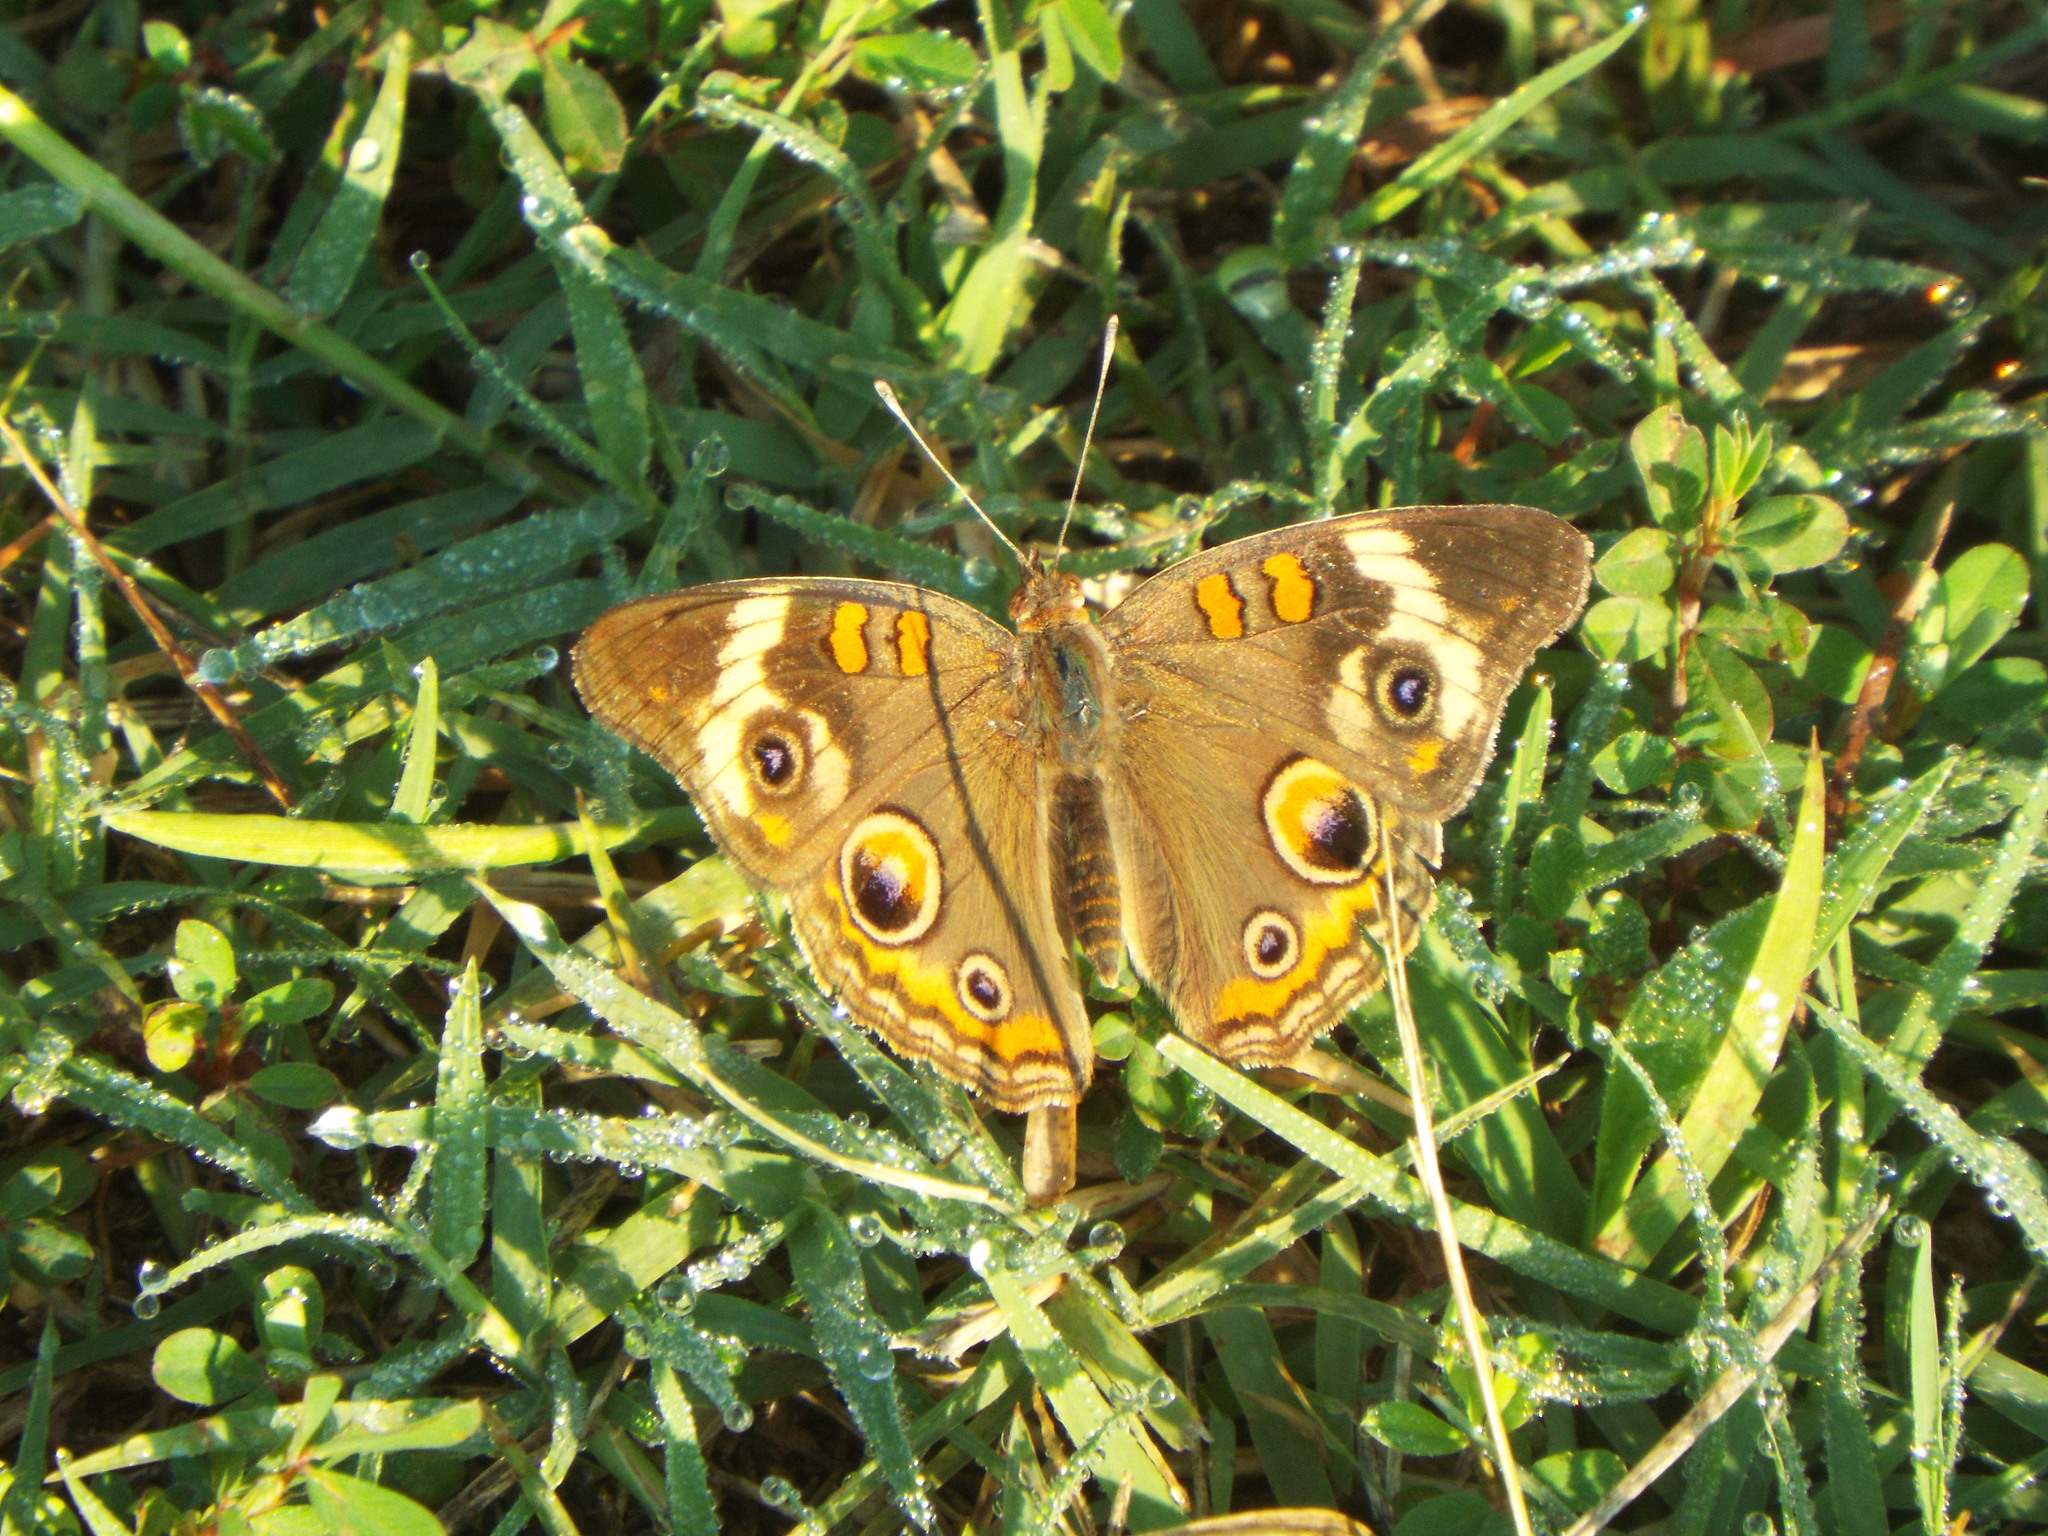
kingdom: Animalia
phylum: Arthropoda
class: Insecta
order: Lepidoptera
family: Nymphalidae
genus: Junonia
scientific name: Junonia coenia
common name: Common buckeye
